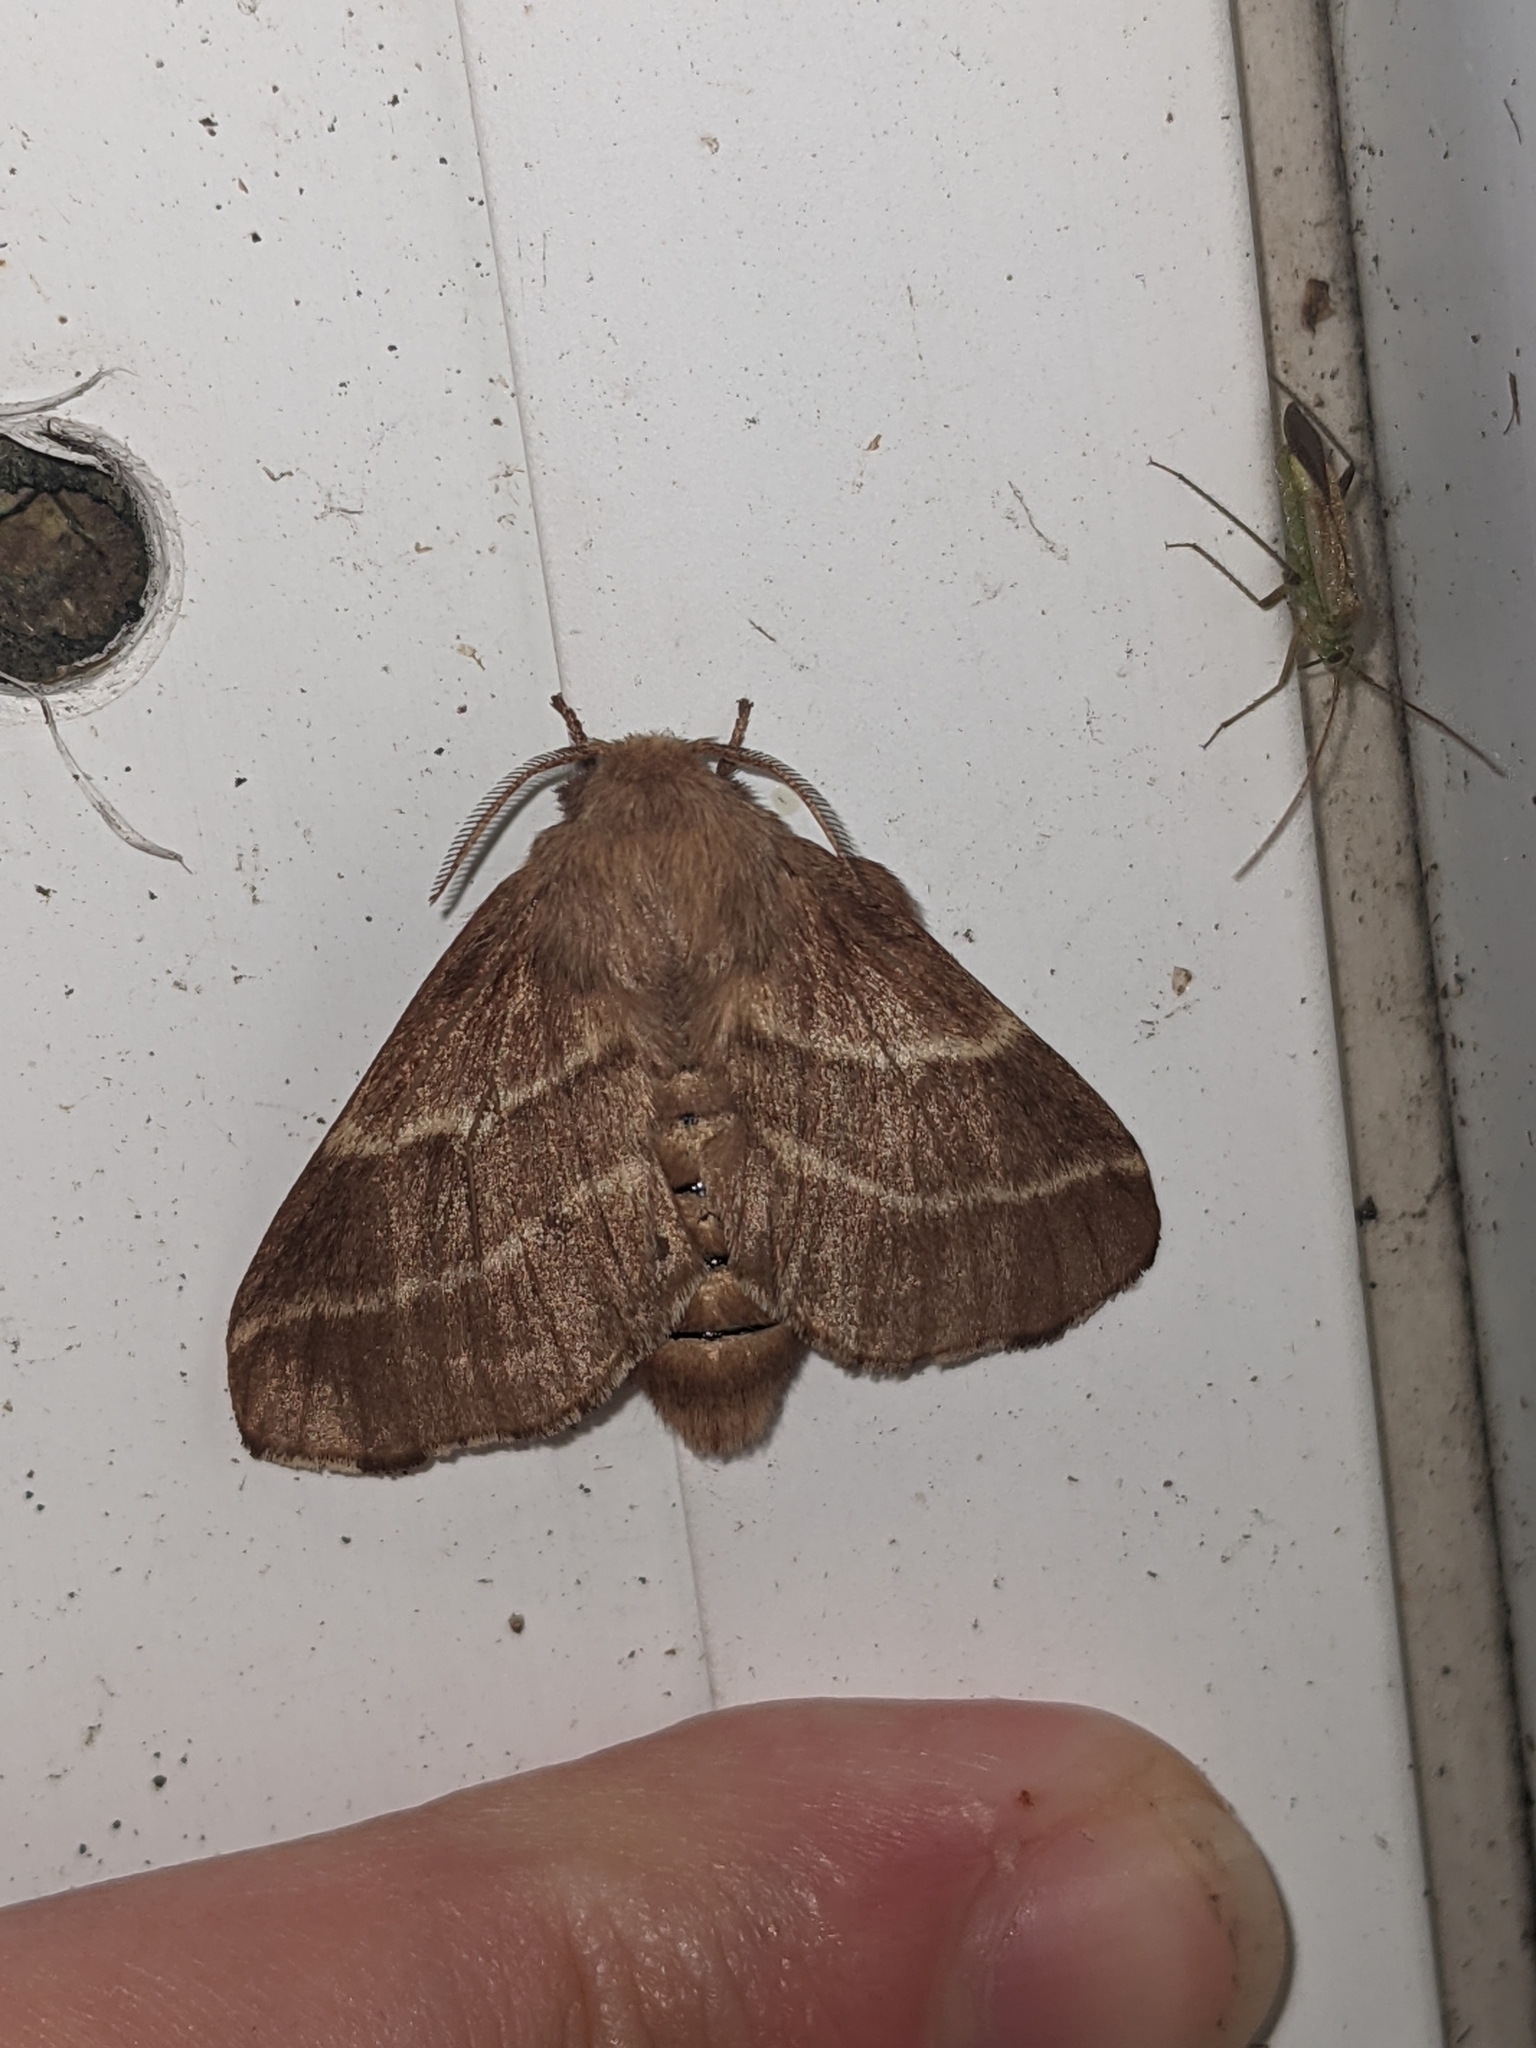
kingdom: Animalia
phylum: Arthropoda
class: Insecta
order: Lepidoptera
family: Lasiocampidae
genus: Malacosoma
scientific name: Malacosoma americana
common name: Eastern tent caterpillar moth
